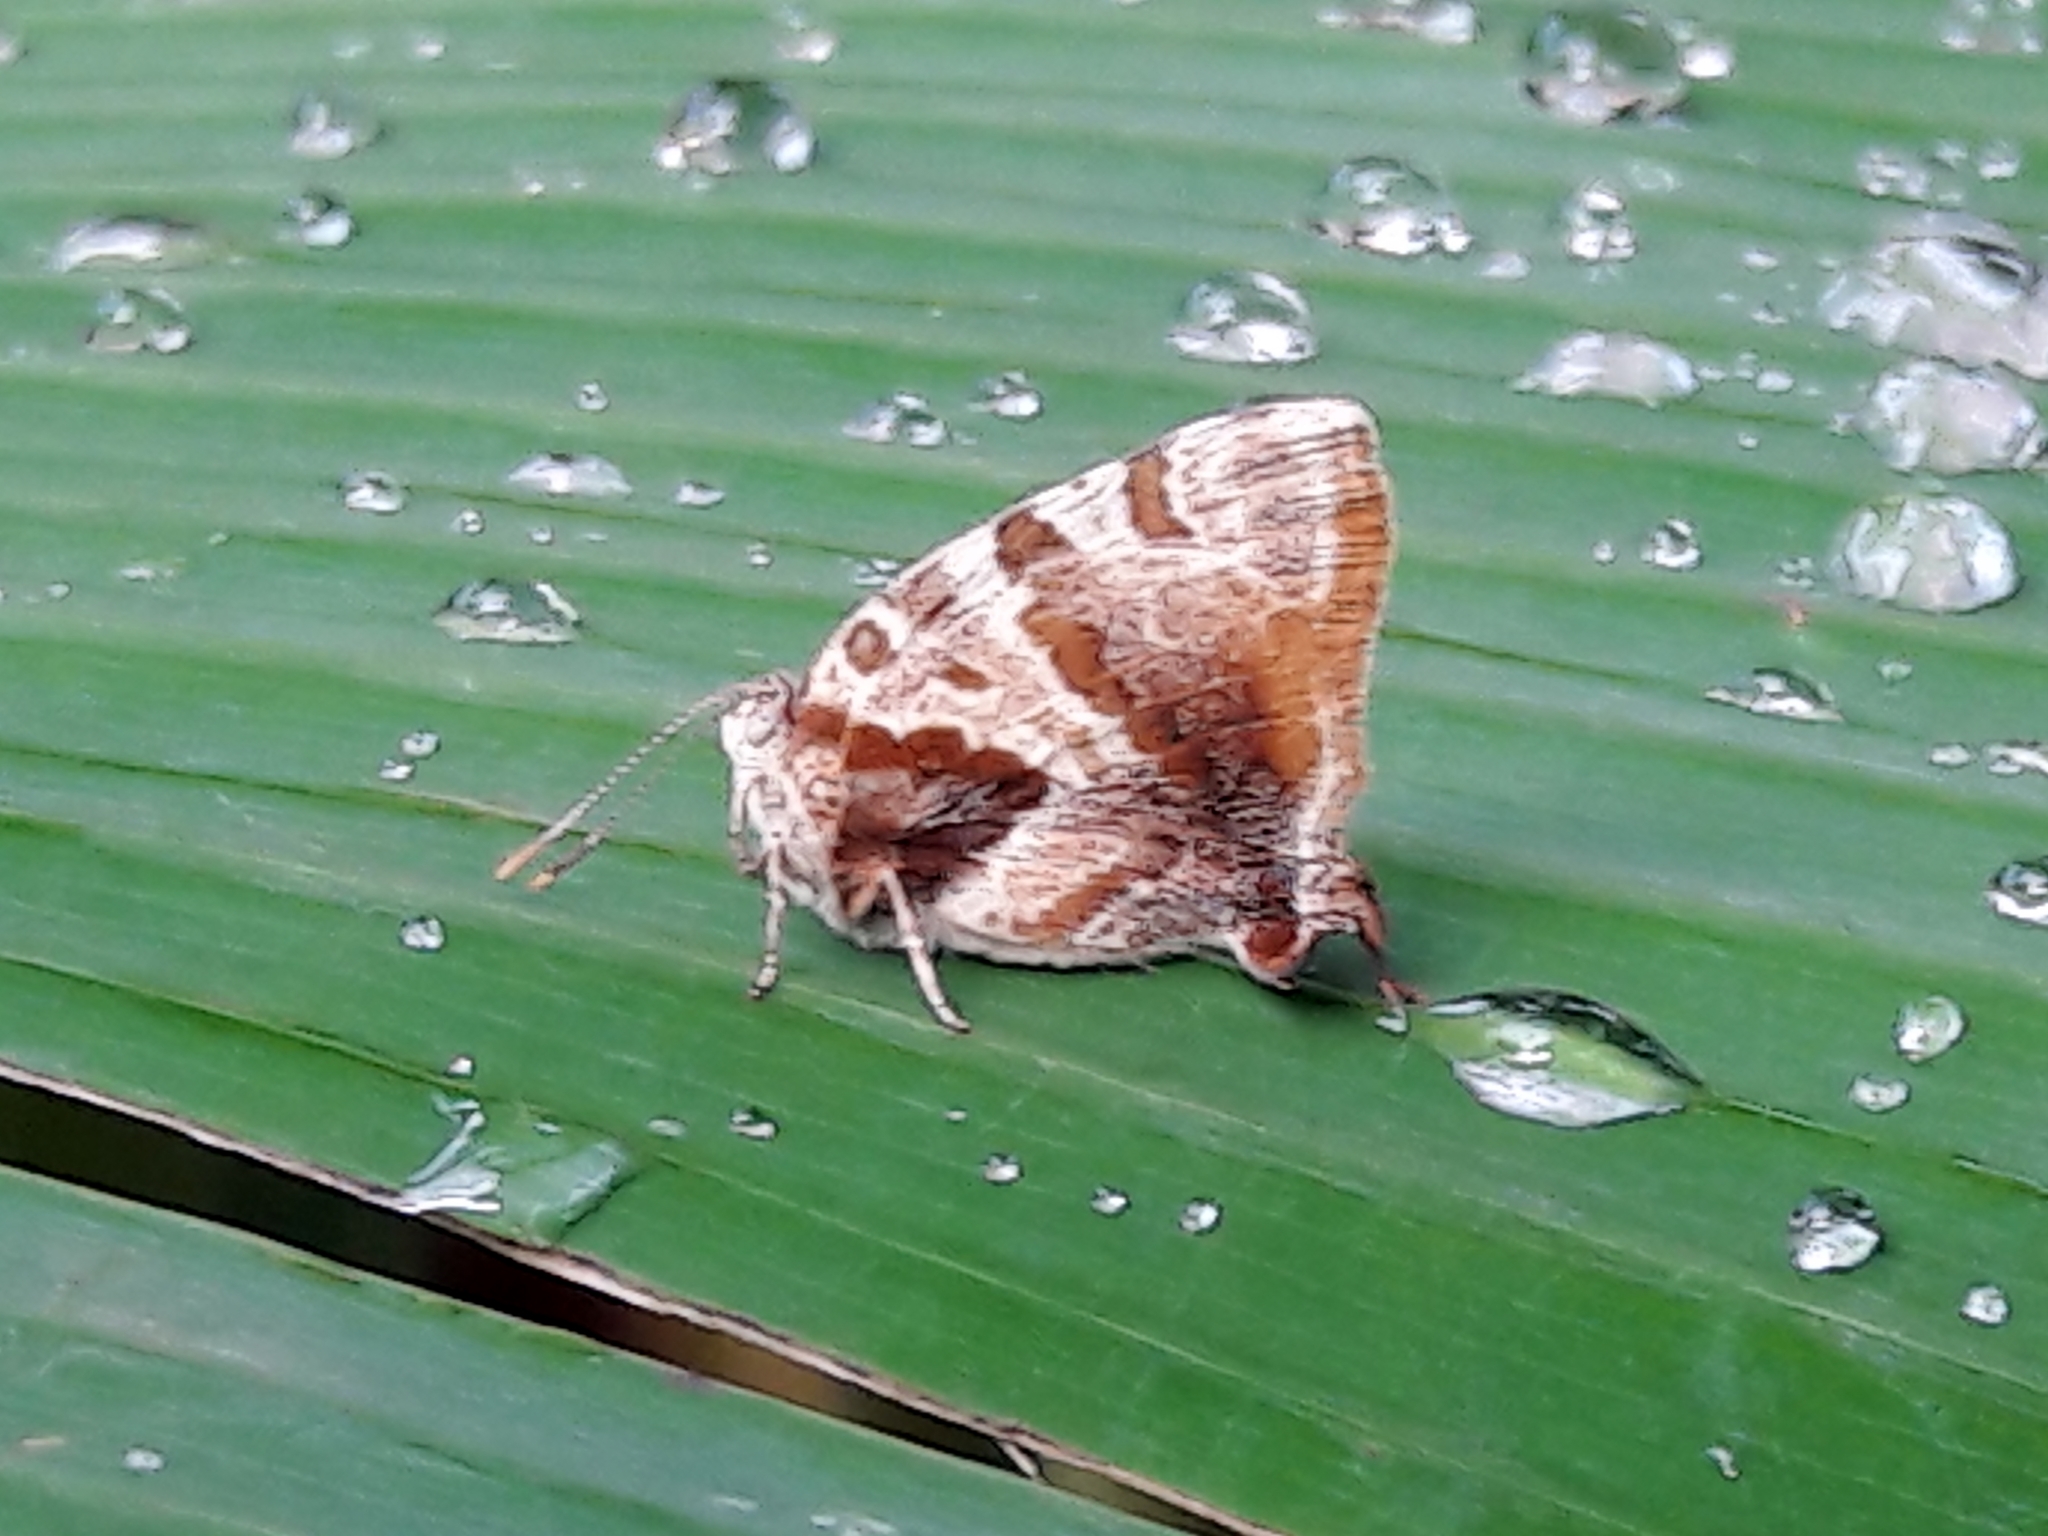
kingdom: Animalia
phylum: Arthropoda
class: Insecta
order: Lepidoptera
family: Lycaenidae
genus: Arawacus
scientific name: Arawacus ellida
